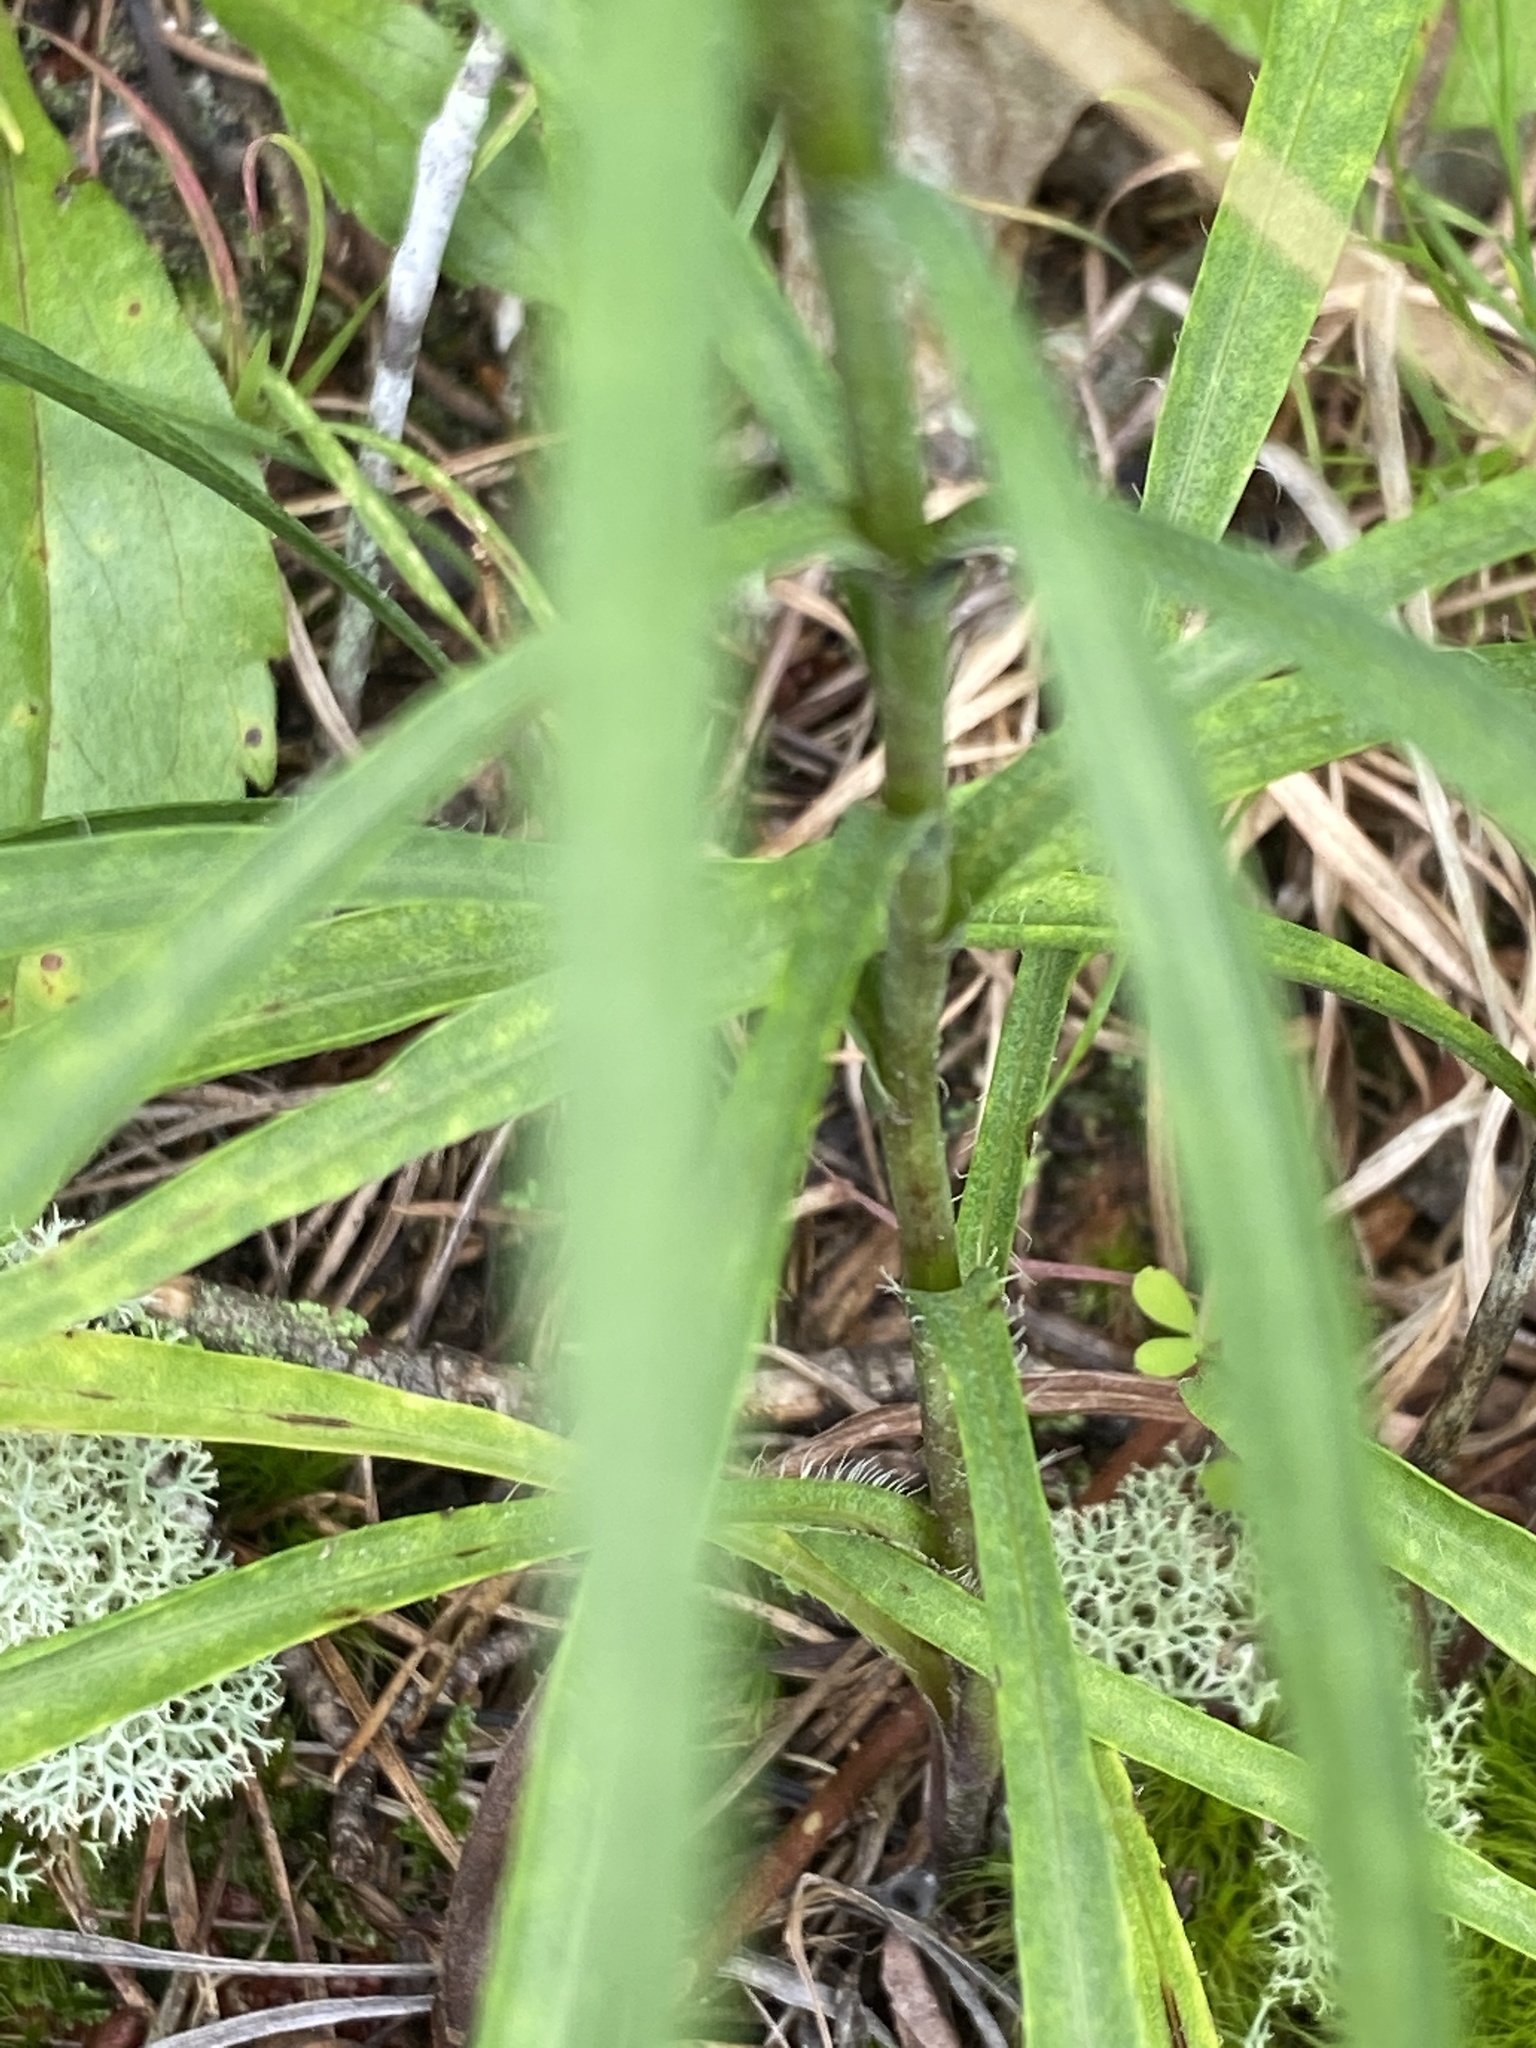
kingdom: Plantae
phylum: Tracheophyta
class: Magnoliopsida
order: Asterales
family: Asteraceae
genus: Liatris
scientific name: Liatris virgata
